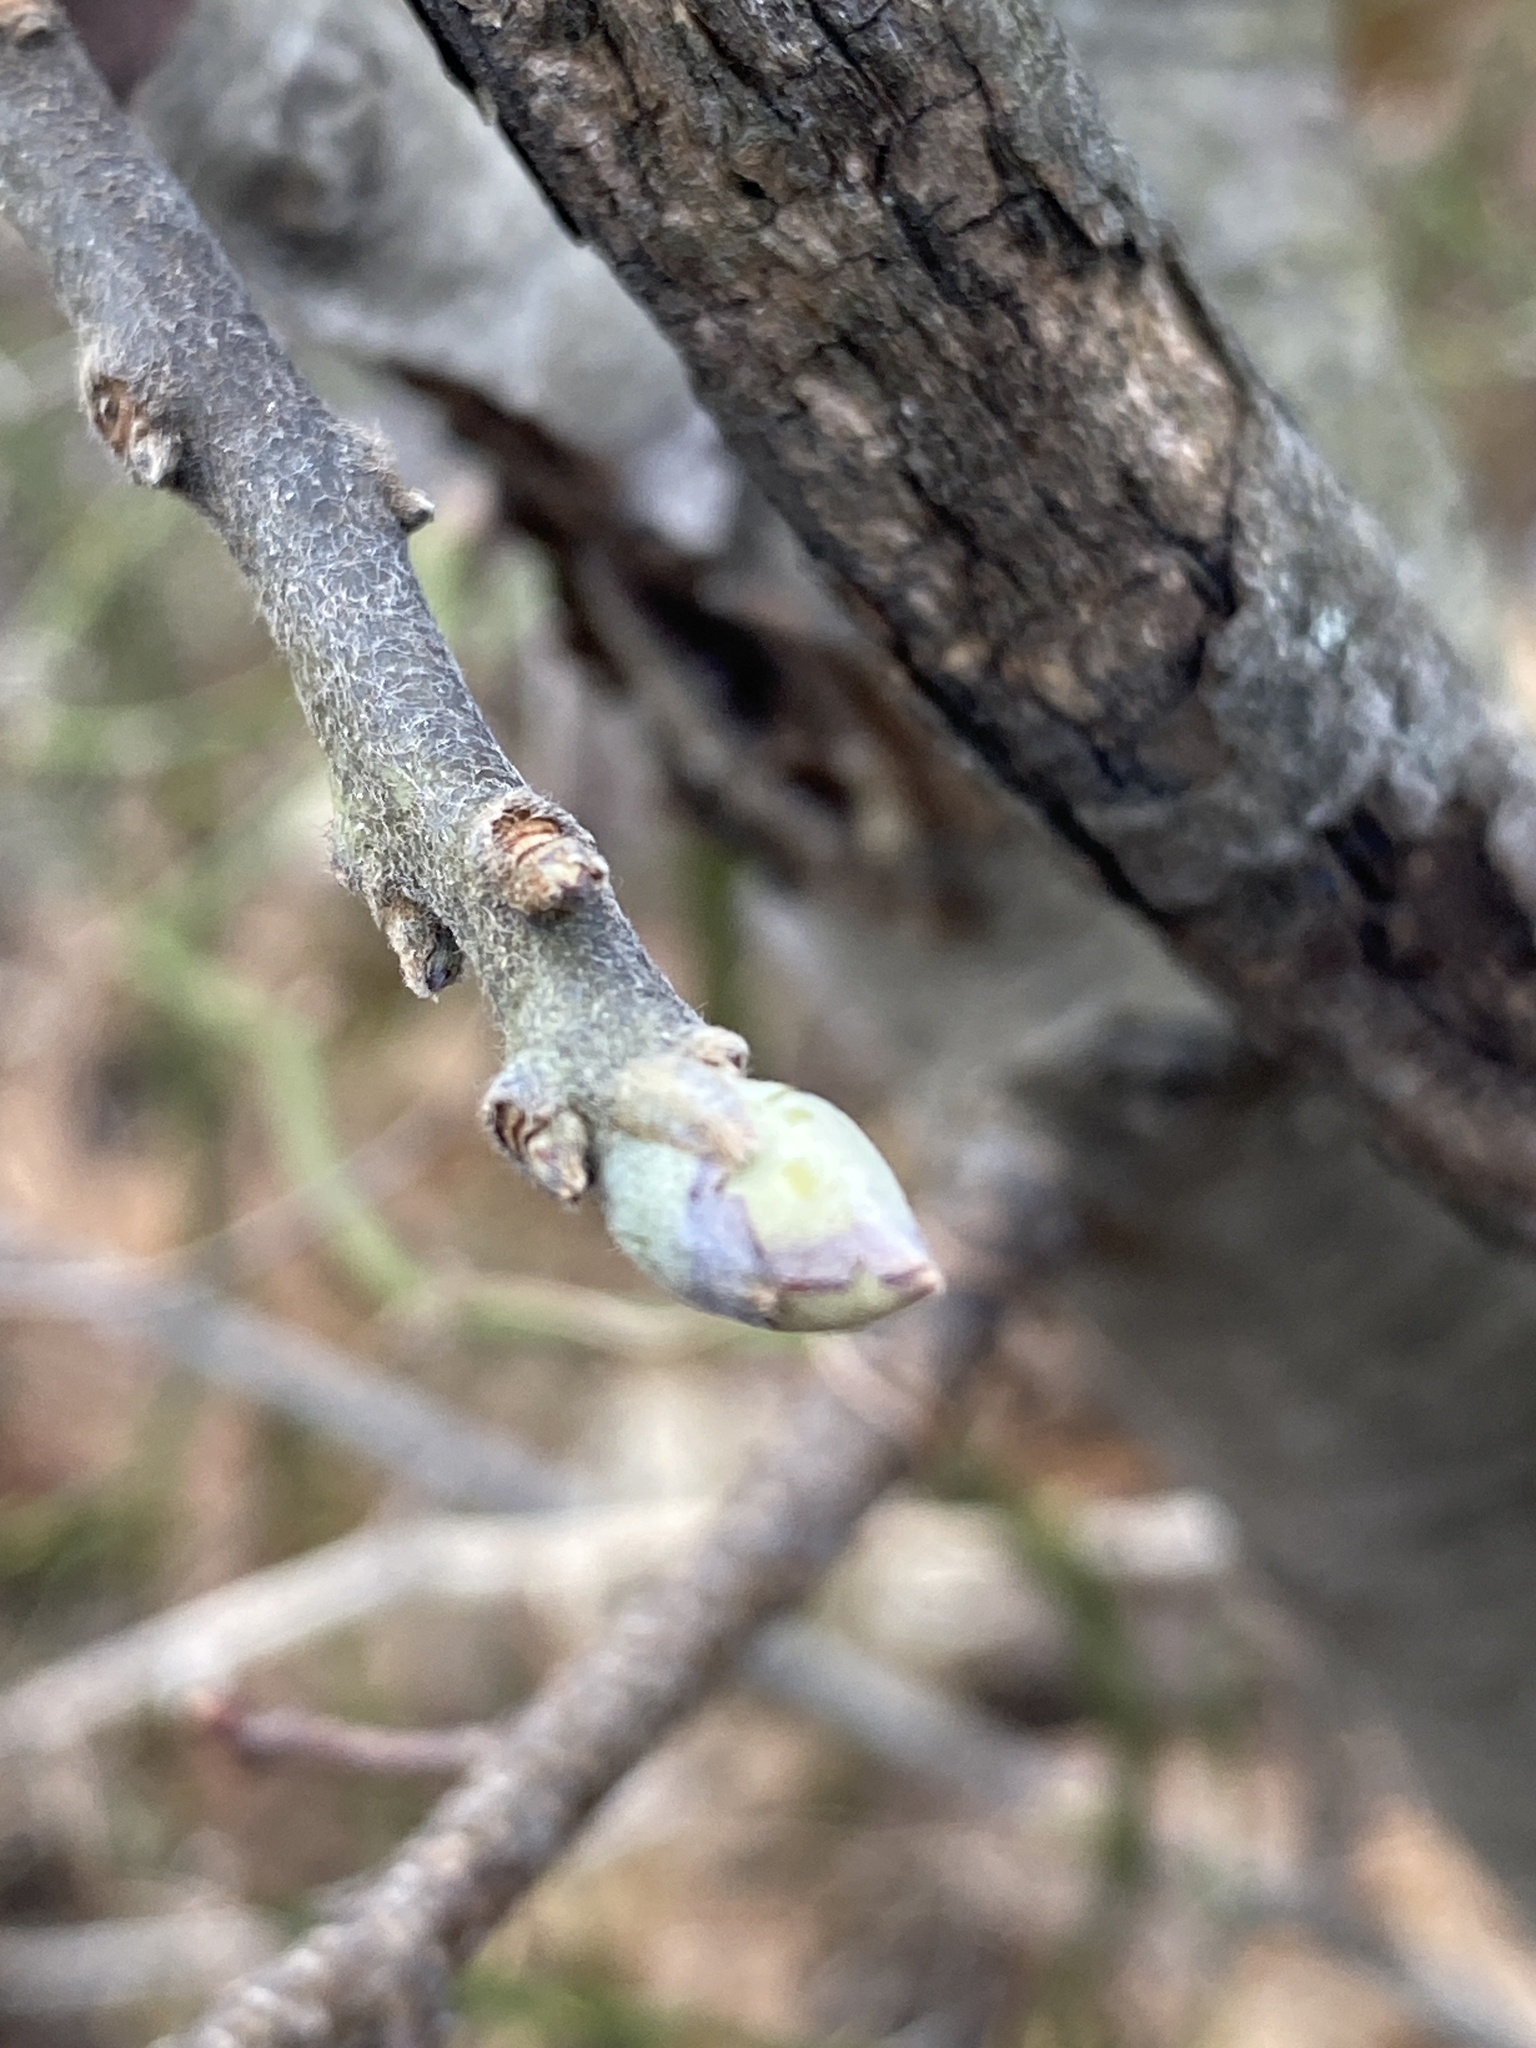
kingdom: Plantae
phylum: Tracheophyta
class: Magnoliopsida
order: Laurales
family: Lauraceae
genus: Sassafras
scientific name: Sassafras albidum
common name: Sassafras
